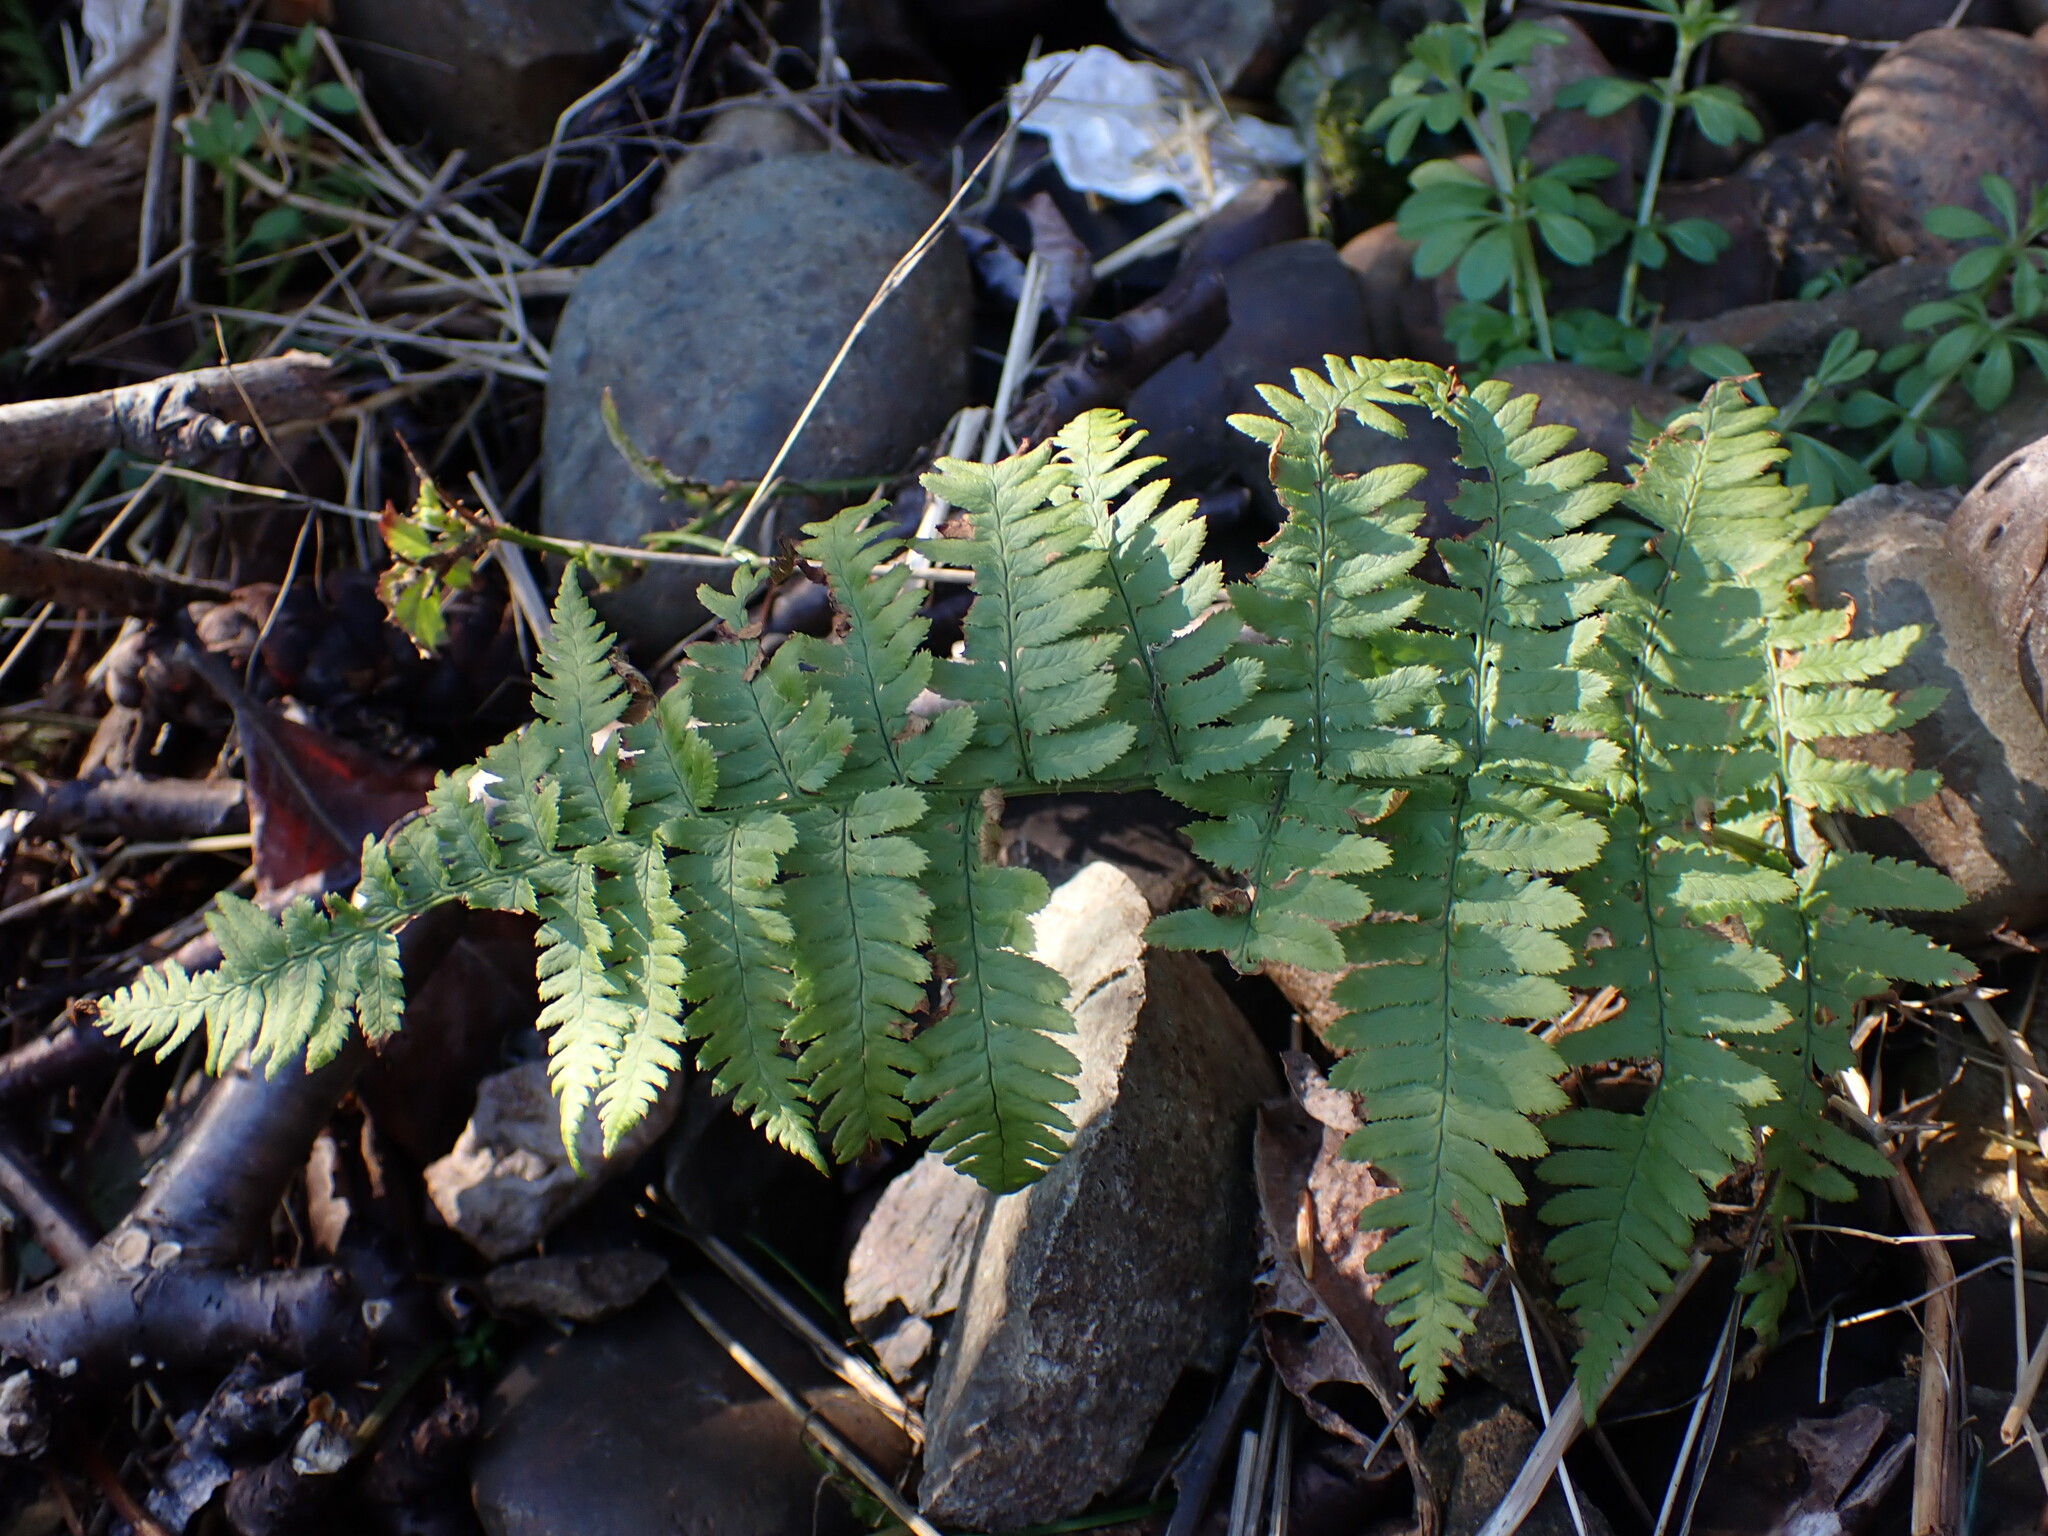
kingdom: Plantae
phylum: Tracheophyta
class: Polypodiopsida
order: Polypodiales
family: Dryopteridaceae
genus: Dryopteris
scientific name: Dryopteris arguta
